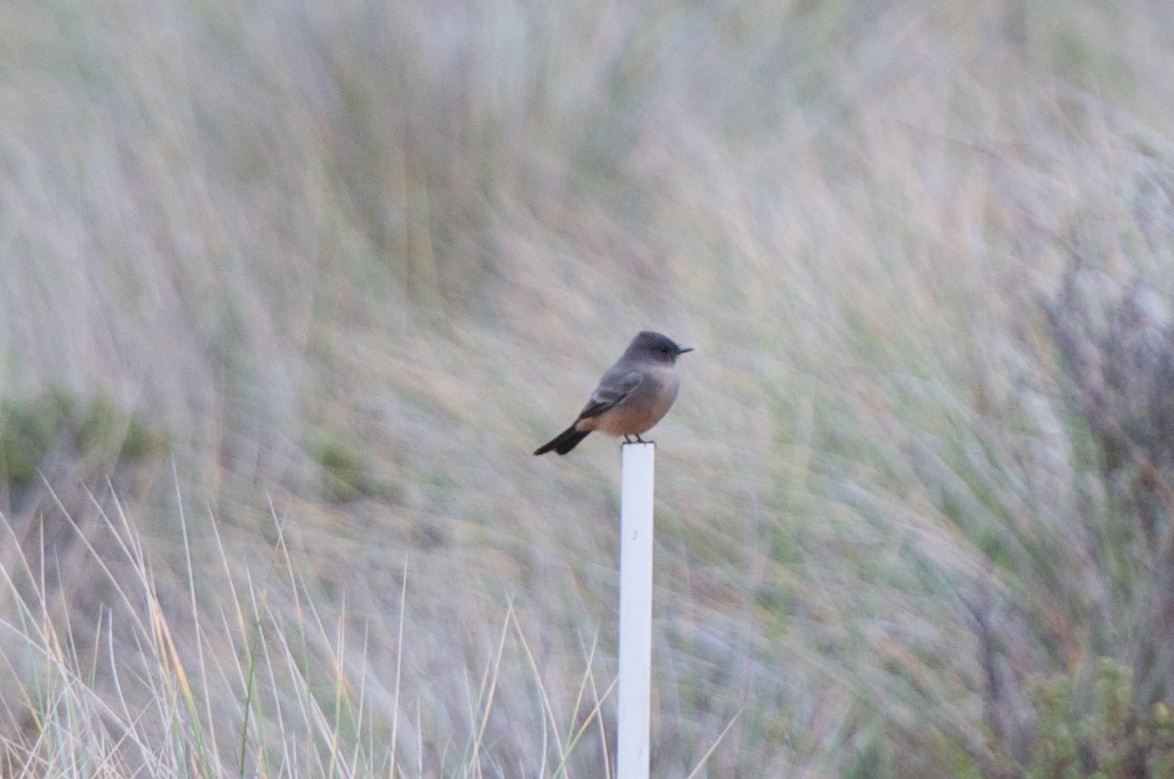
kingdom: Animalia
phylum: Chordata
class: Aves
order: Passeriformes
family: Tyrannidae
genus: Sayornis
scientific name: Sayornis saya
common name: Say's phoebe
